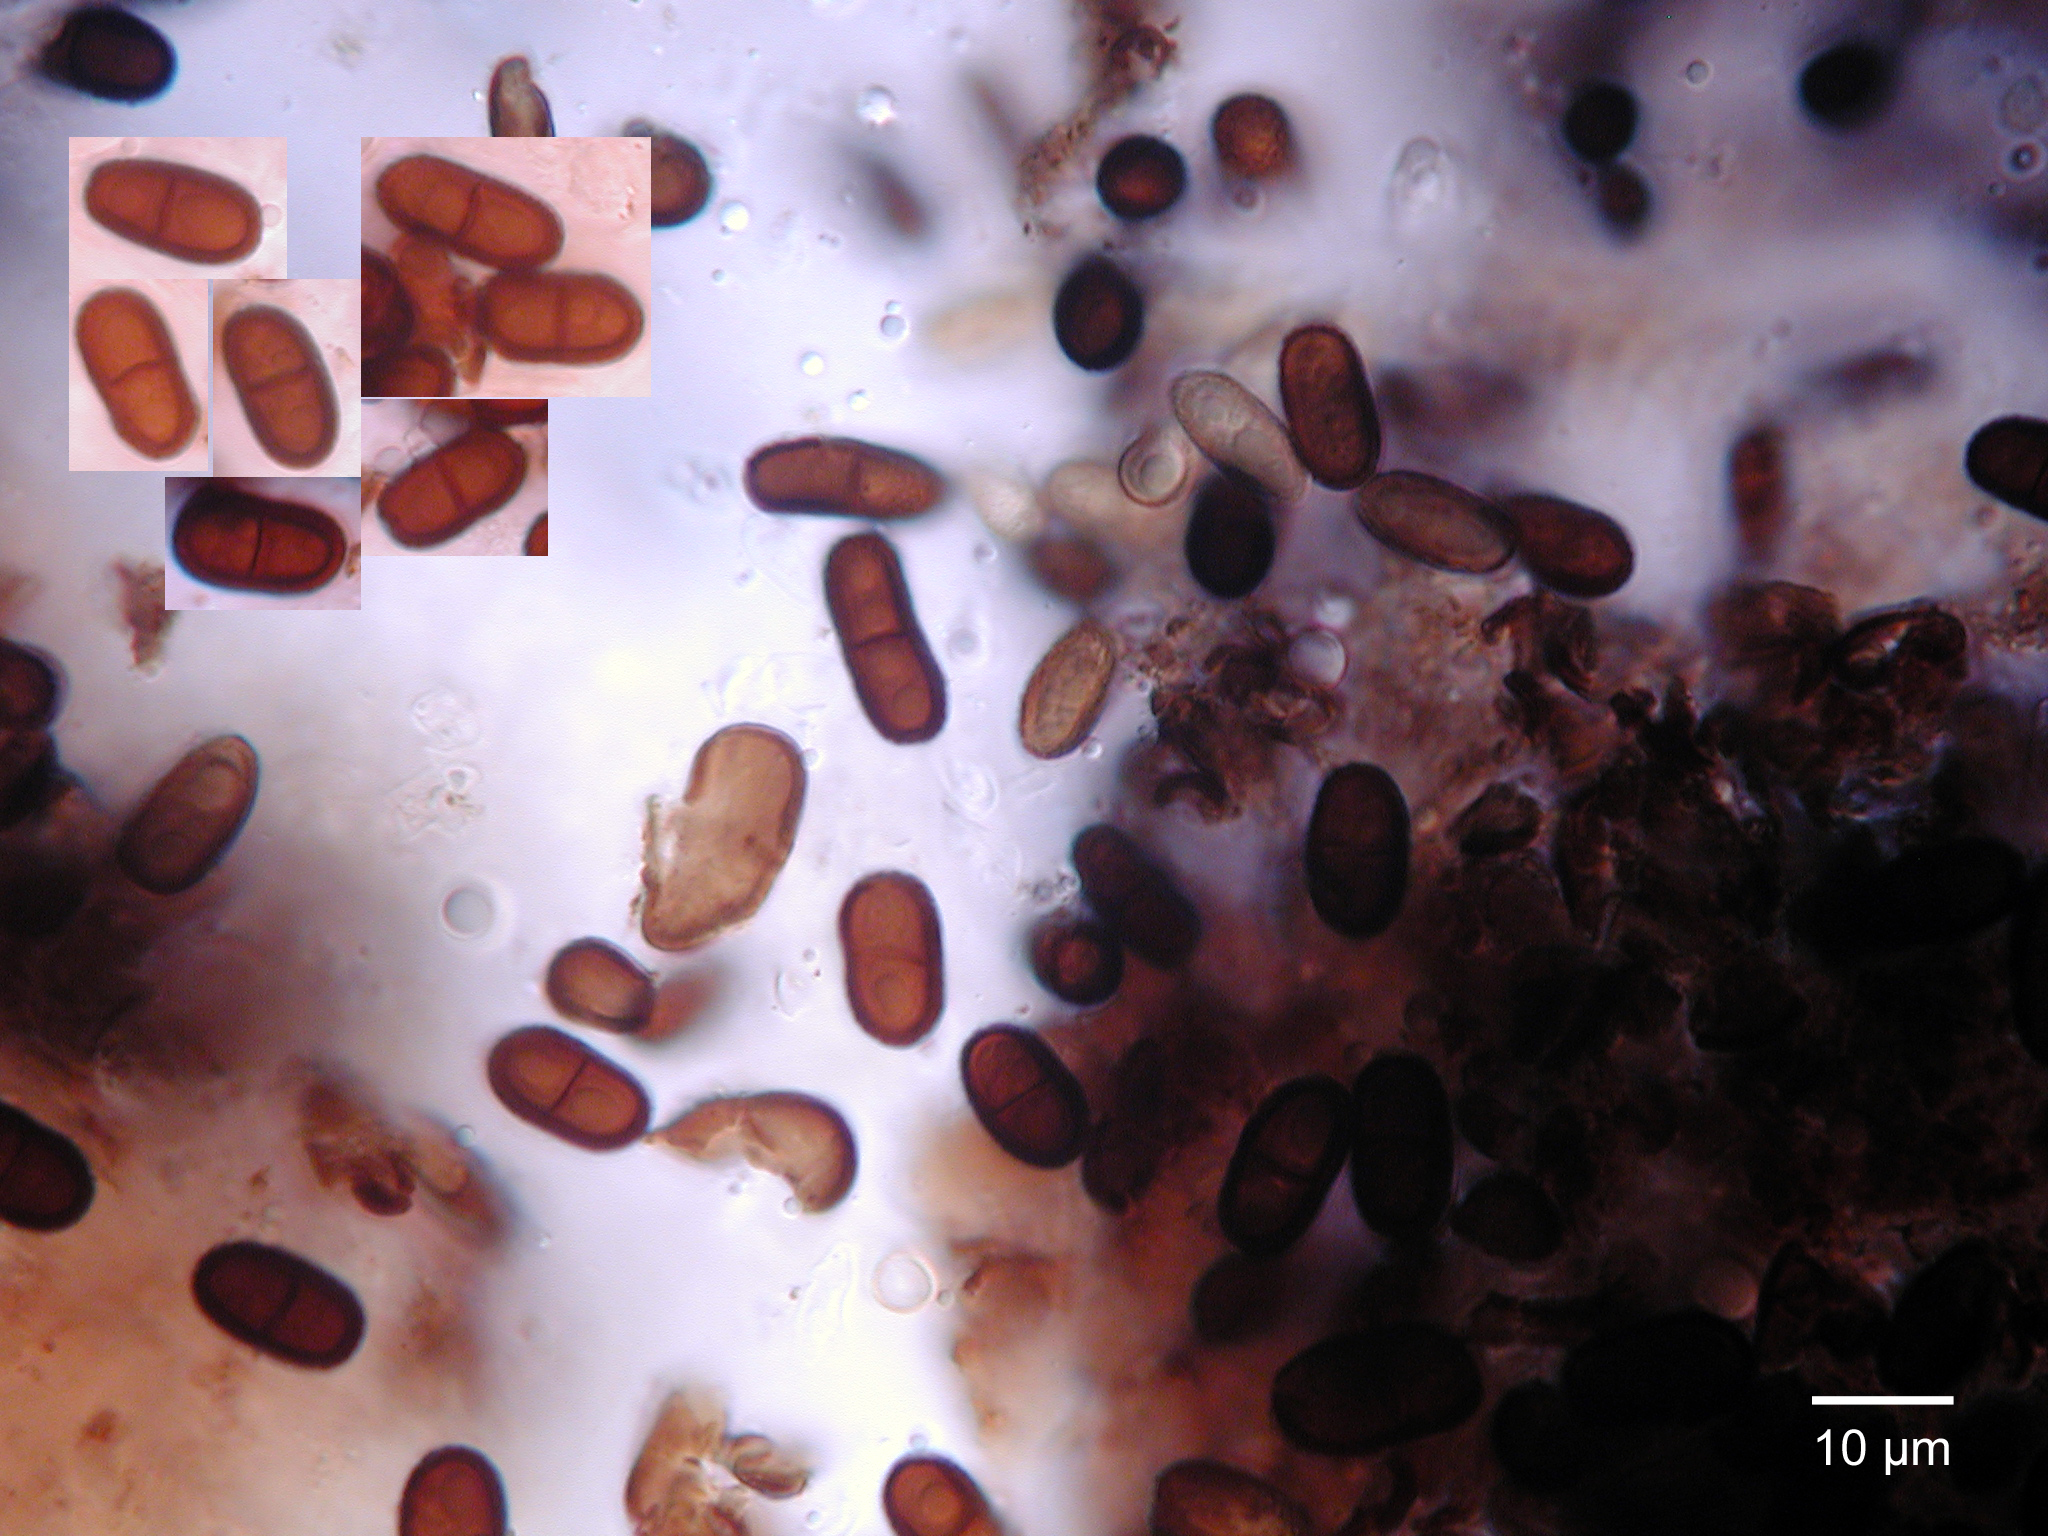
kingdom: Fungi
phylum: Ascomycota
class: Dothideomycetes
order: Botryosphaeriales
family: Botryosphaeriaceae
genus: Diplodia
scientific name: Diplodia
